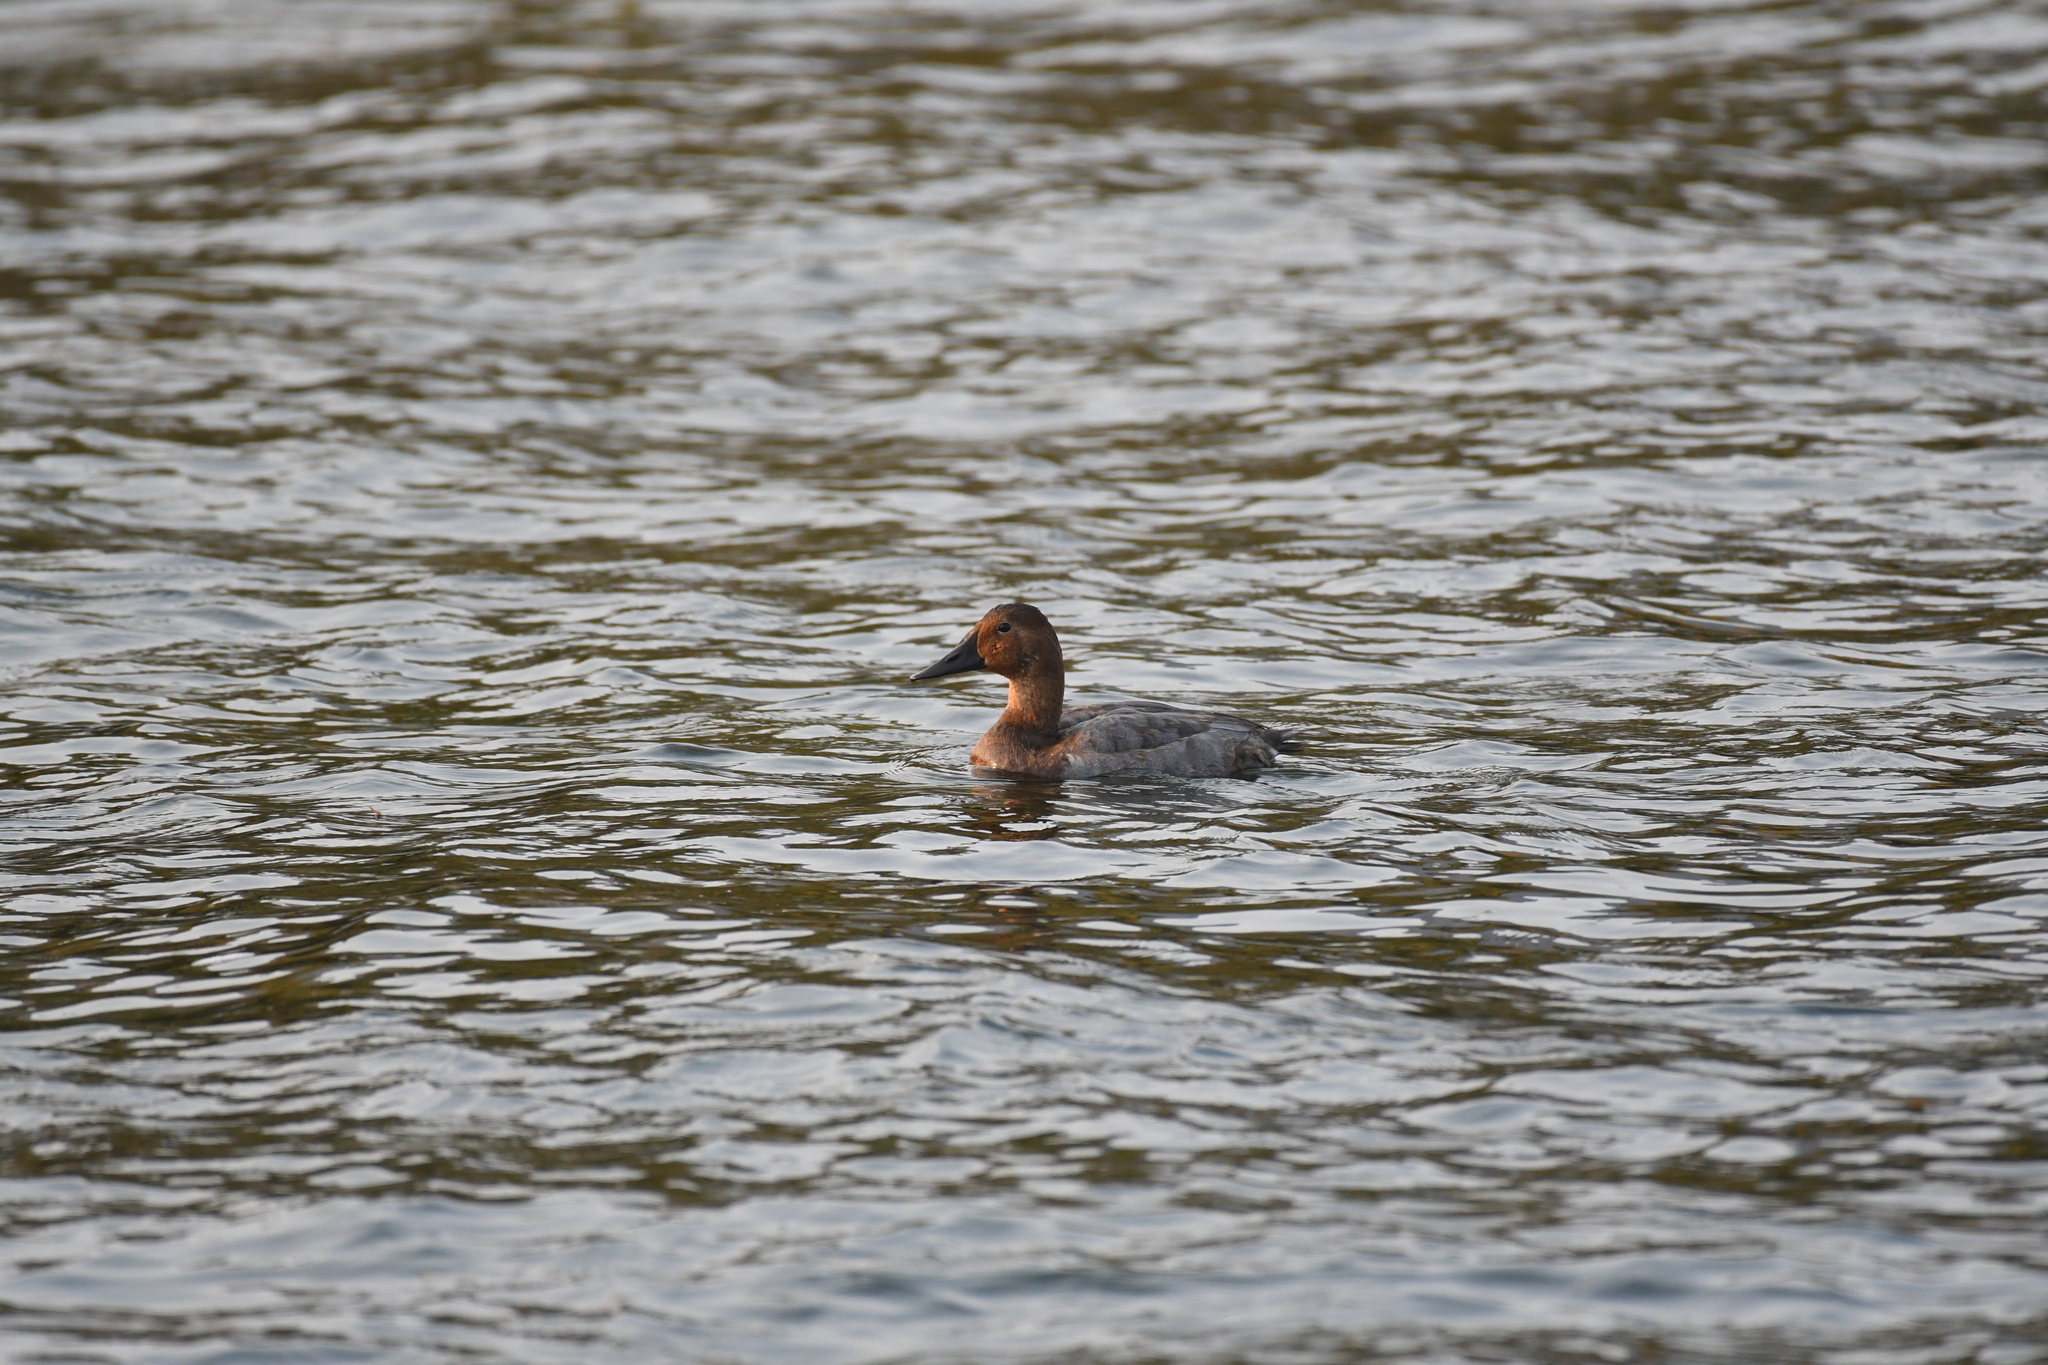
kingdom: Animalia
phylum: Chordata
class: Aves
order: Anseriformes
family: Anatidae
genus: Aythya
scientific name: Aythya valisineria
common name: Canvasback
